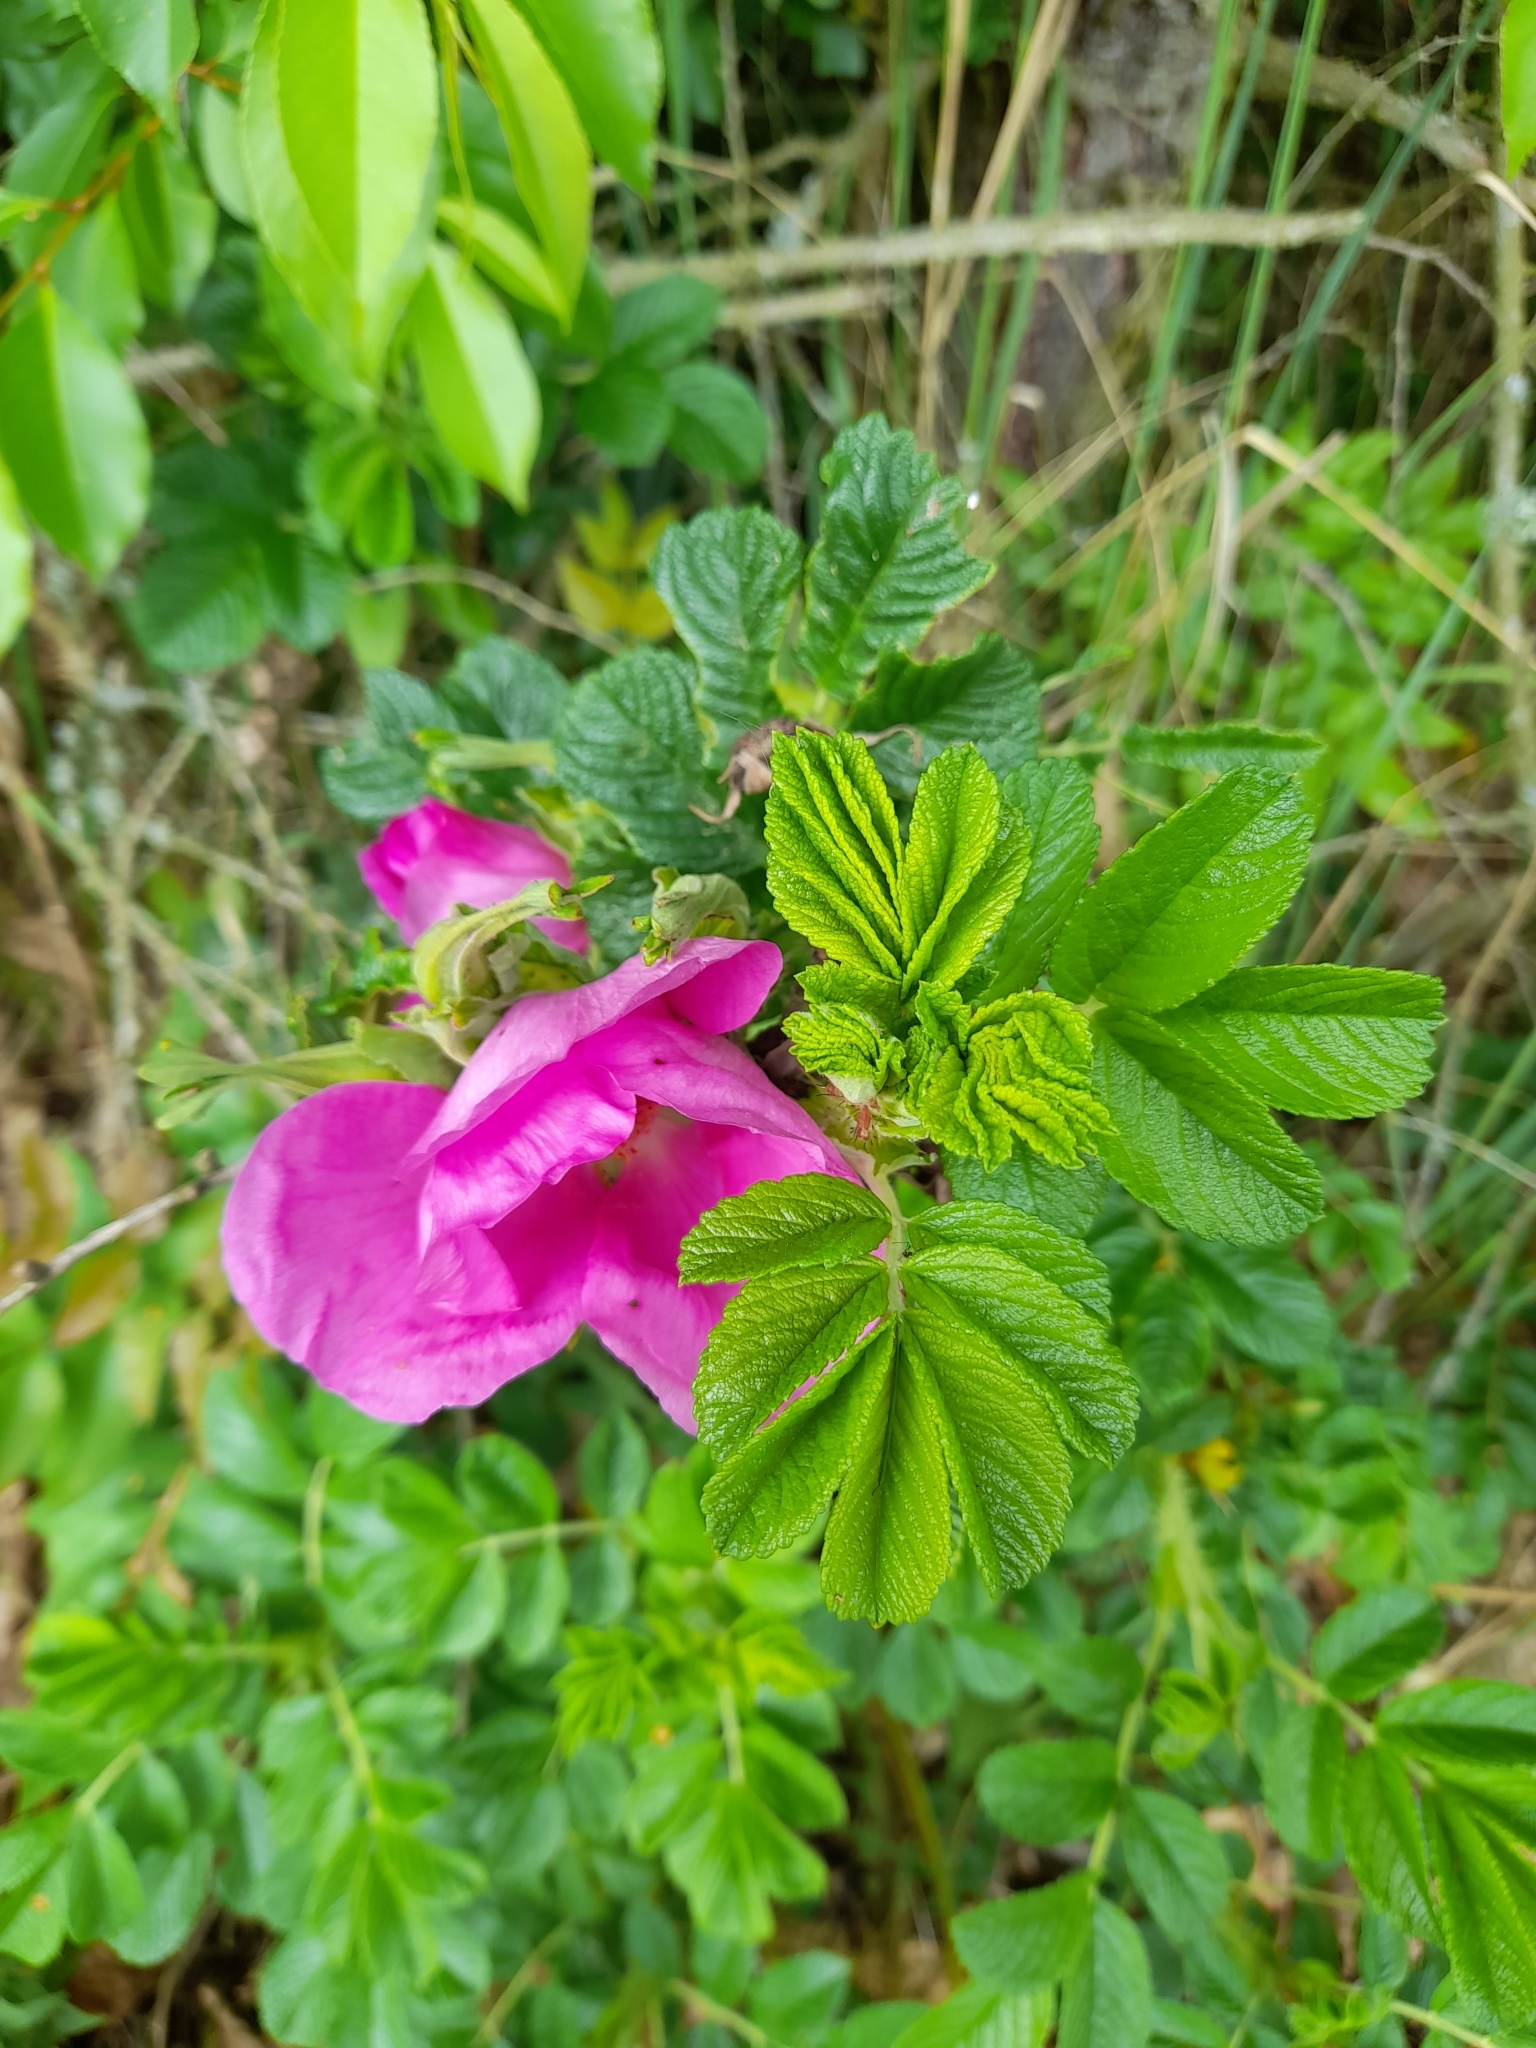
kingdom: Plantae
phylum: Tracheophyta
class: Magnoliopsida
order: Rosales
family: Rosaceae
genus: Rosa
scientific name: Rosa rugosa
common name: Japanese rose
